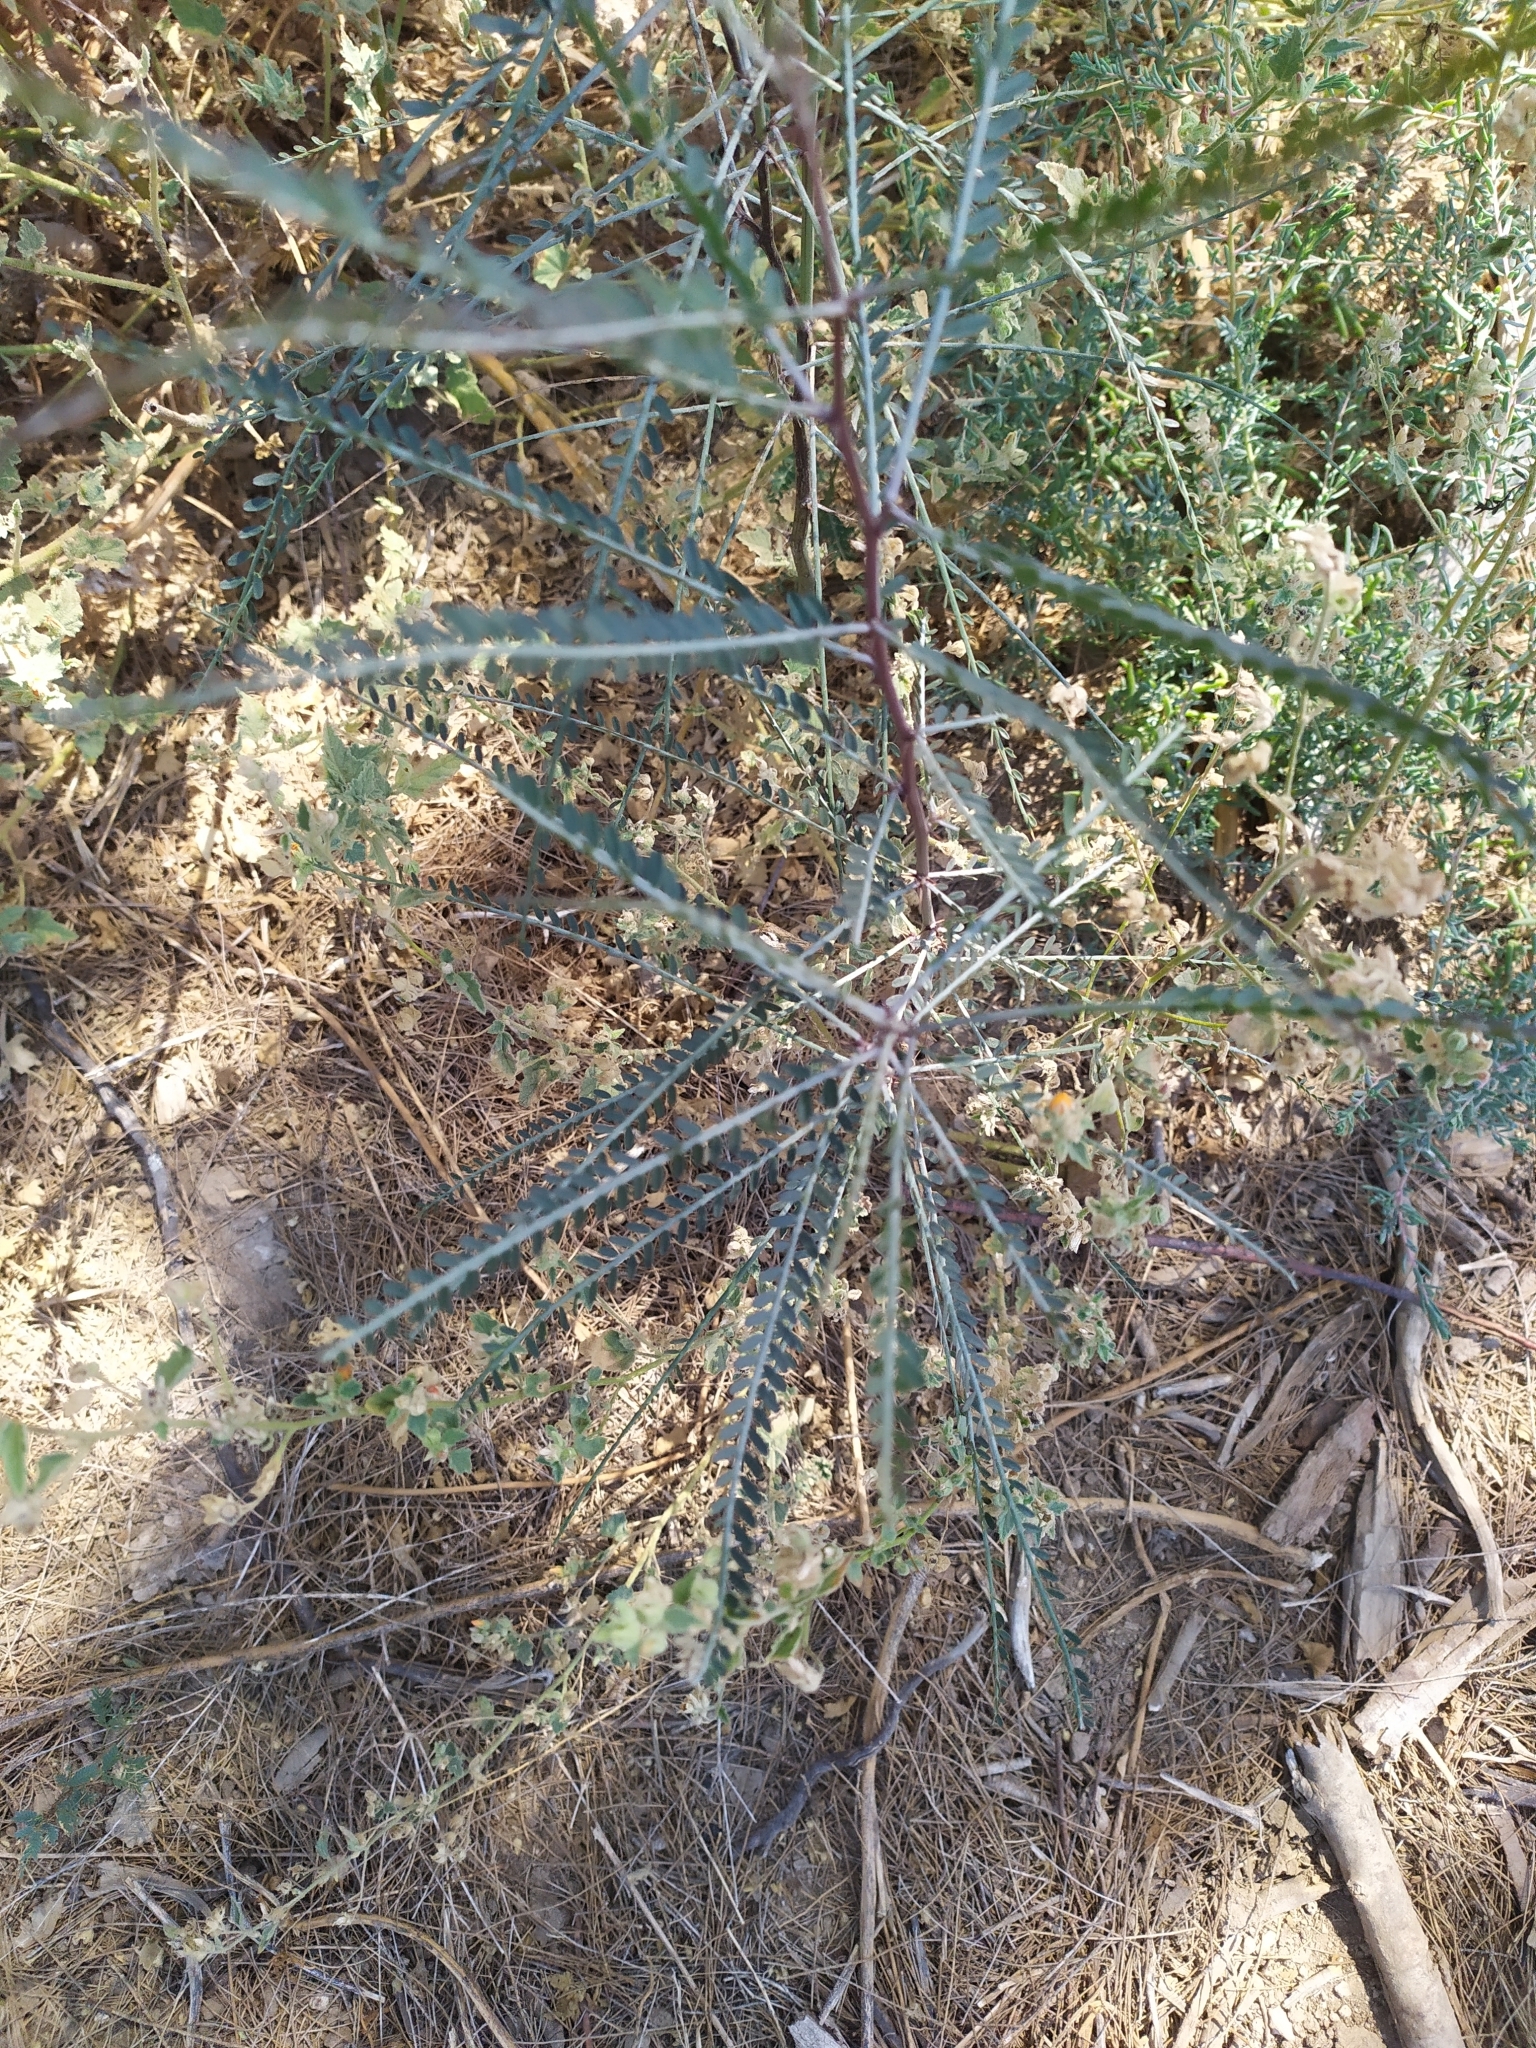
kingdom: Plantae
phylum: Tracheophyta
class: Magnoliopsida
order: Fabales
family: Fabaceae
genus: Parkinsonia
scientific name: Parkinsonia aculeata
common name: Jerusalem thorn
